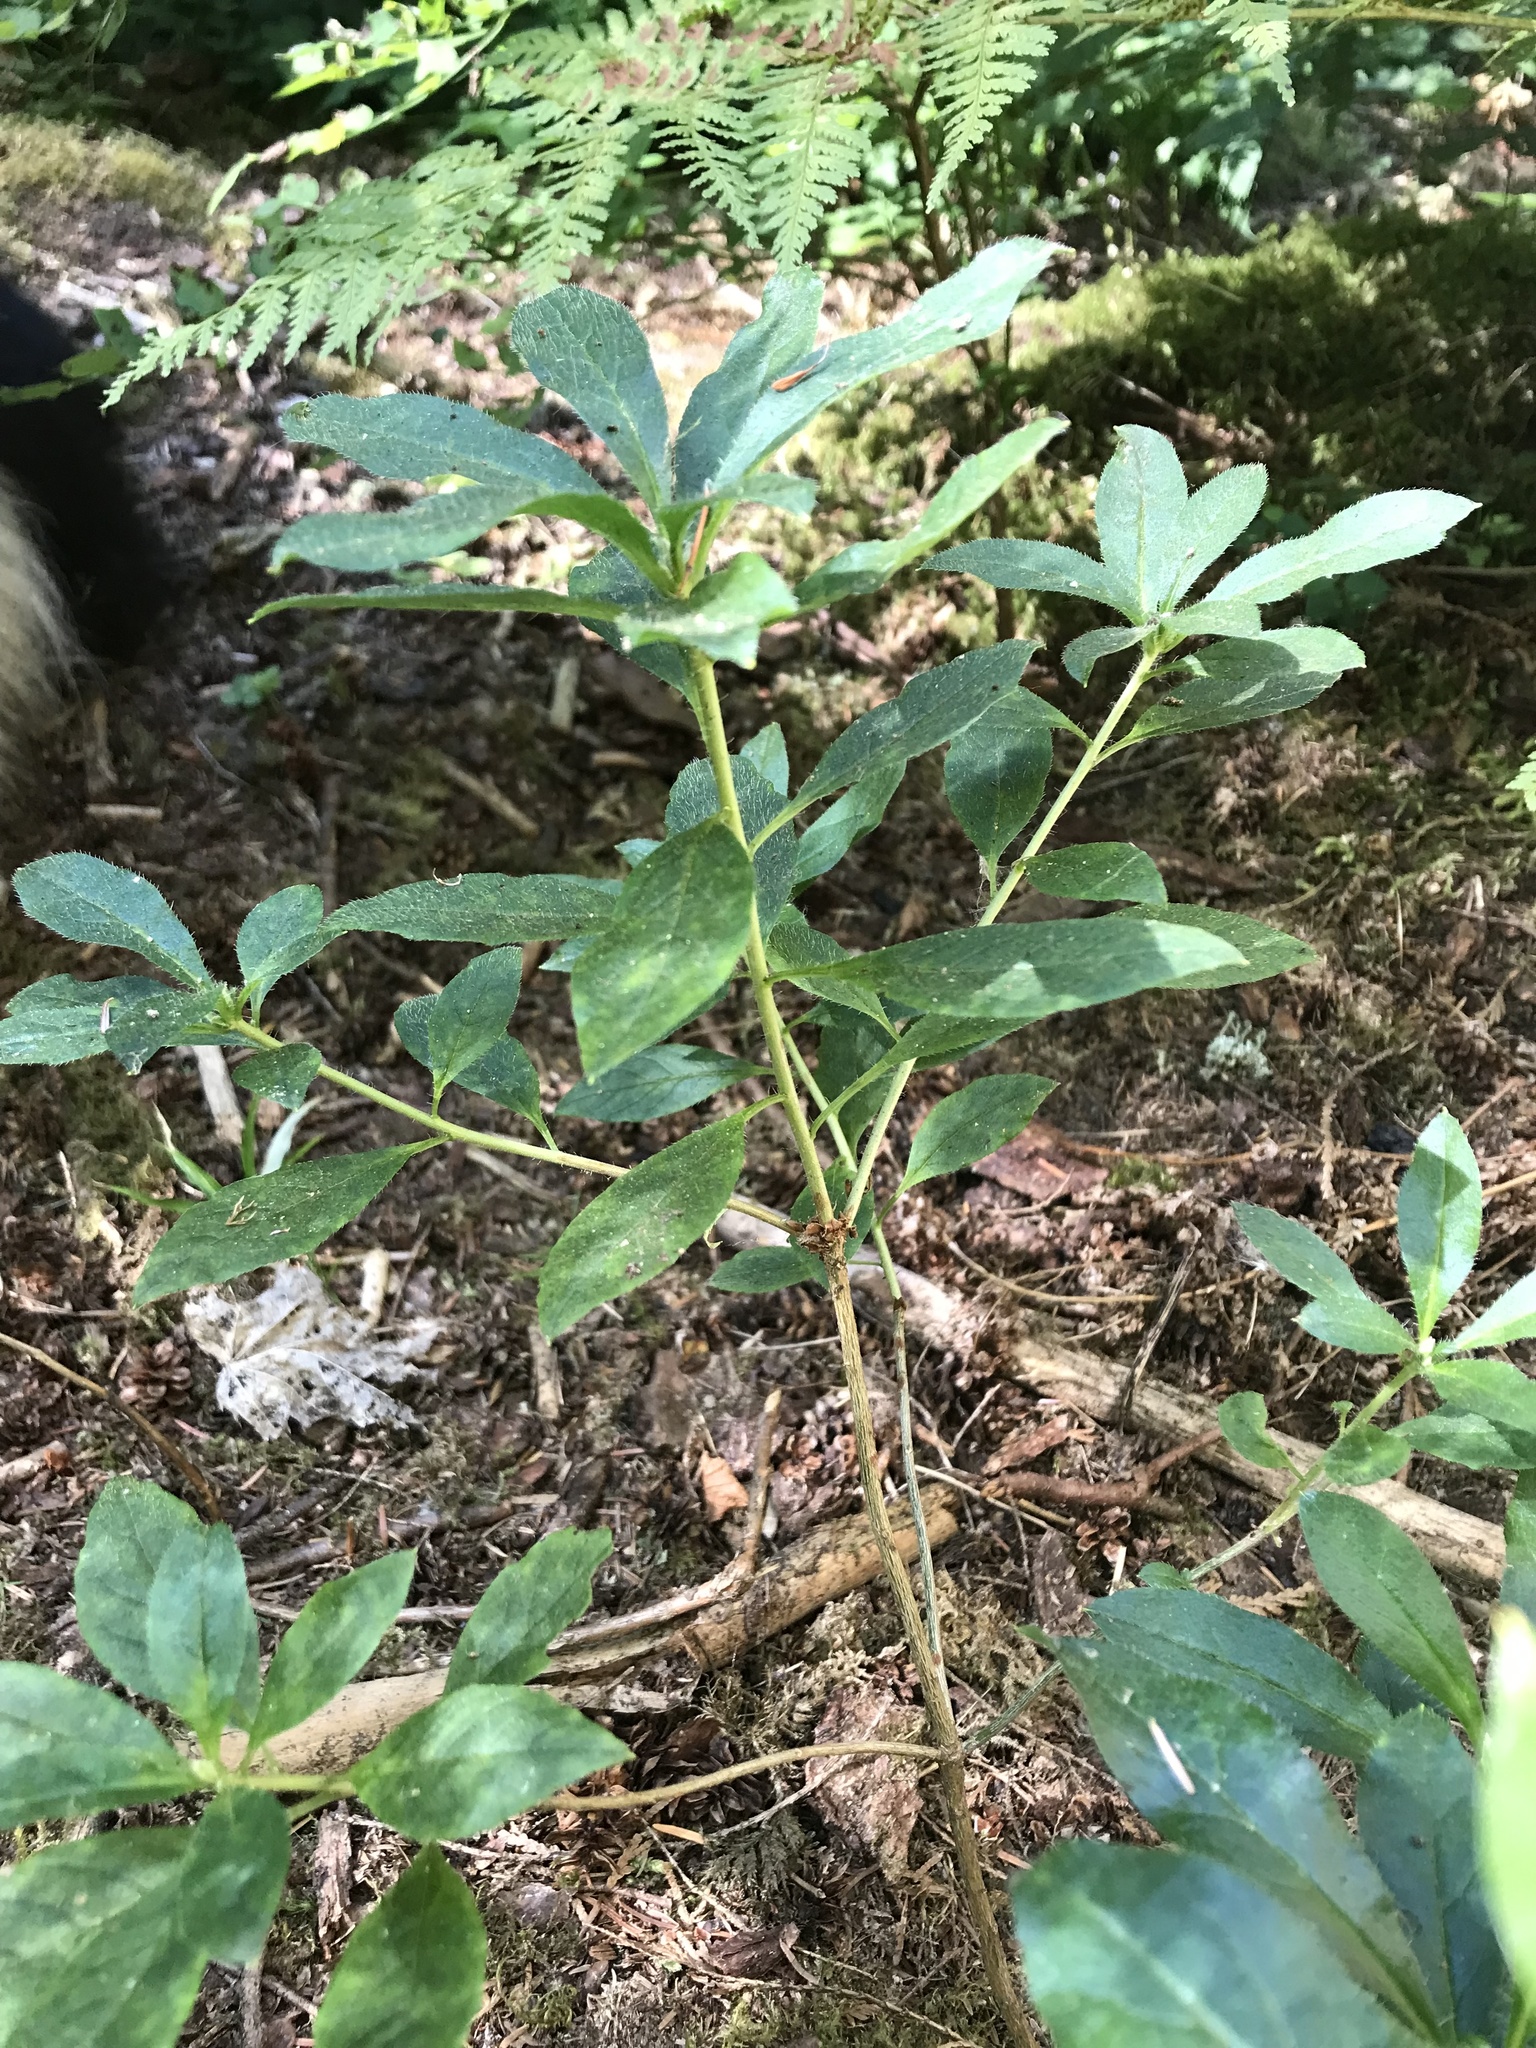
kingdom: Plantae
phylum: Tracheophyta
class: Magnoliopsida
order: Ericales
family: Ericaceae
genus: Rhododendron
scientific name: Rhododendron menziesii
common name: Pacific menziesia
